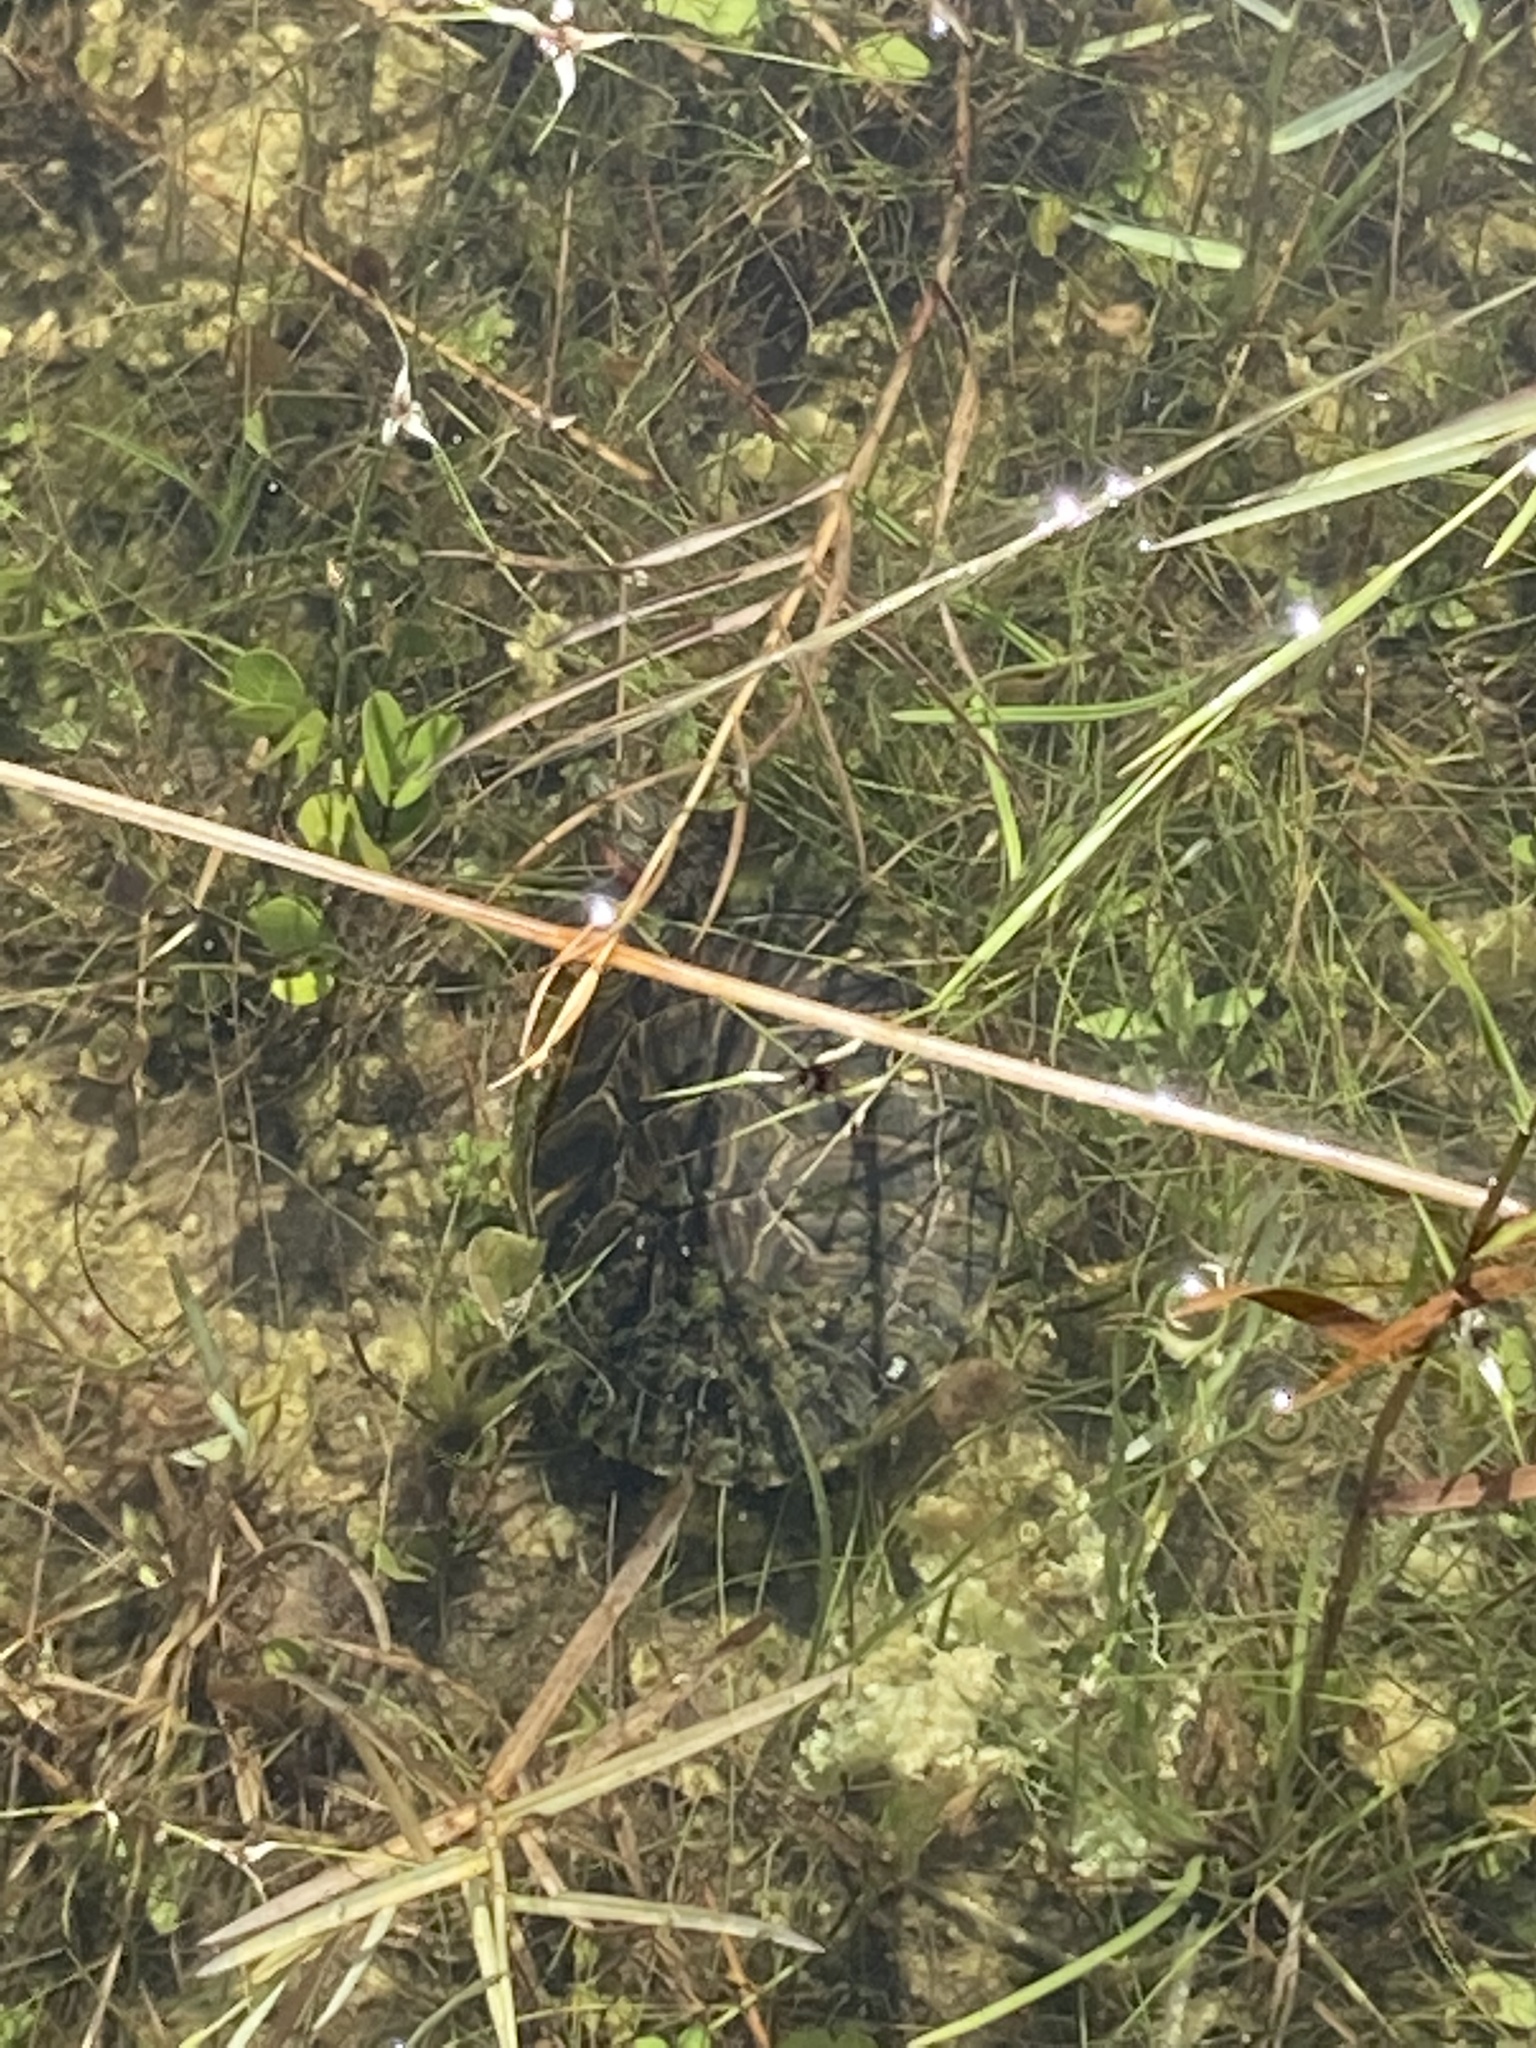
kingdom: Animalia
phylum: Chordata
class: Testudines
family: Emydidae
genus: Trachemys
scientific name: Trachemys scripta
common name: Slider
